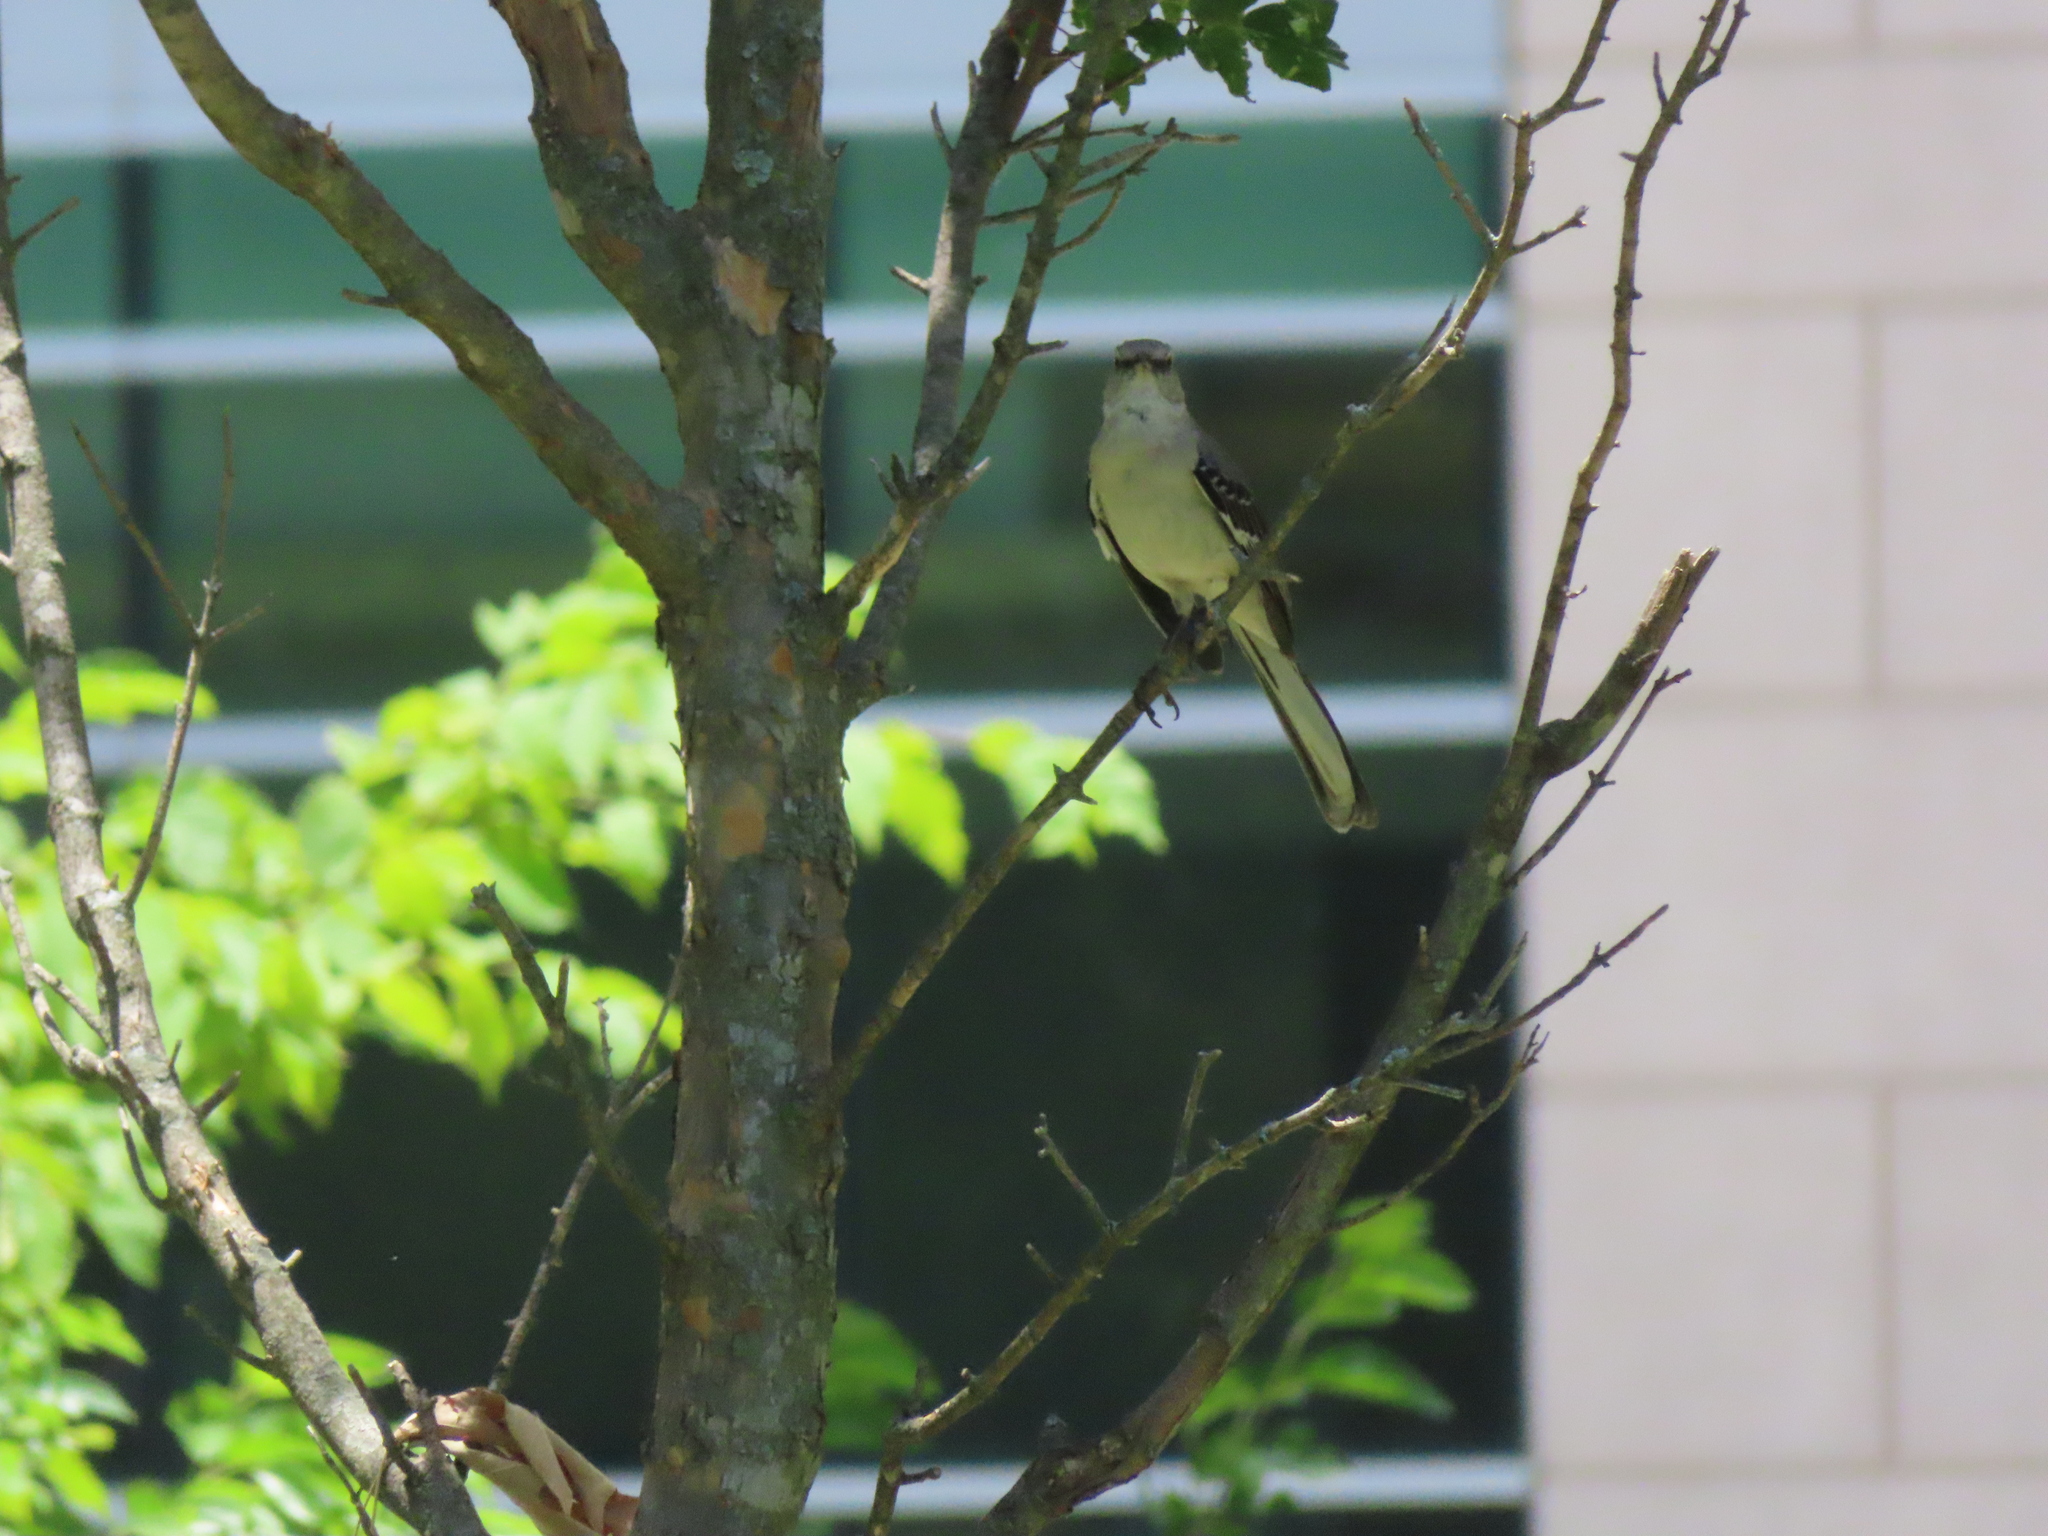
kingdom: Animalia
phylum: Chordata
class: Aves
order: Passeriformes
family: Mimidae
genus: Mimus
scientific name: Mimus polyglottos
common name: Northern mockingbird
